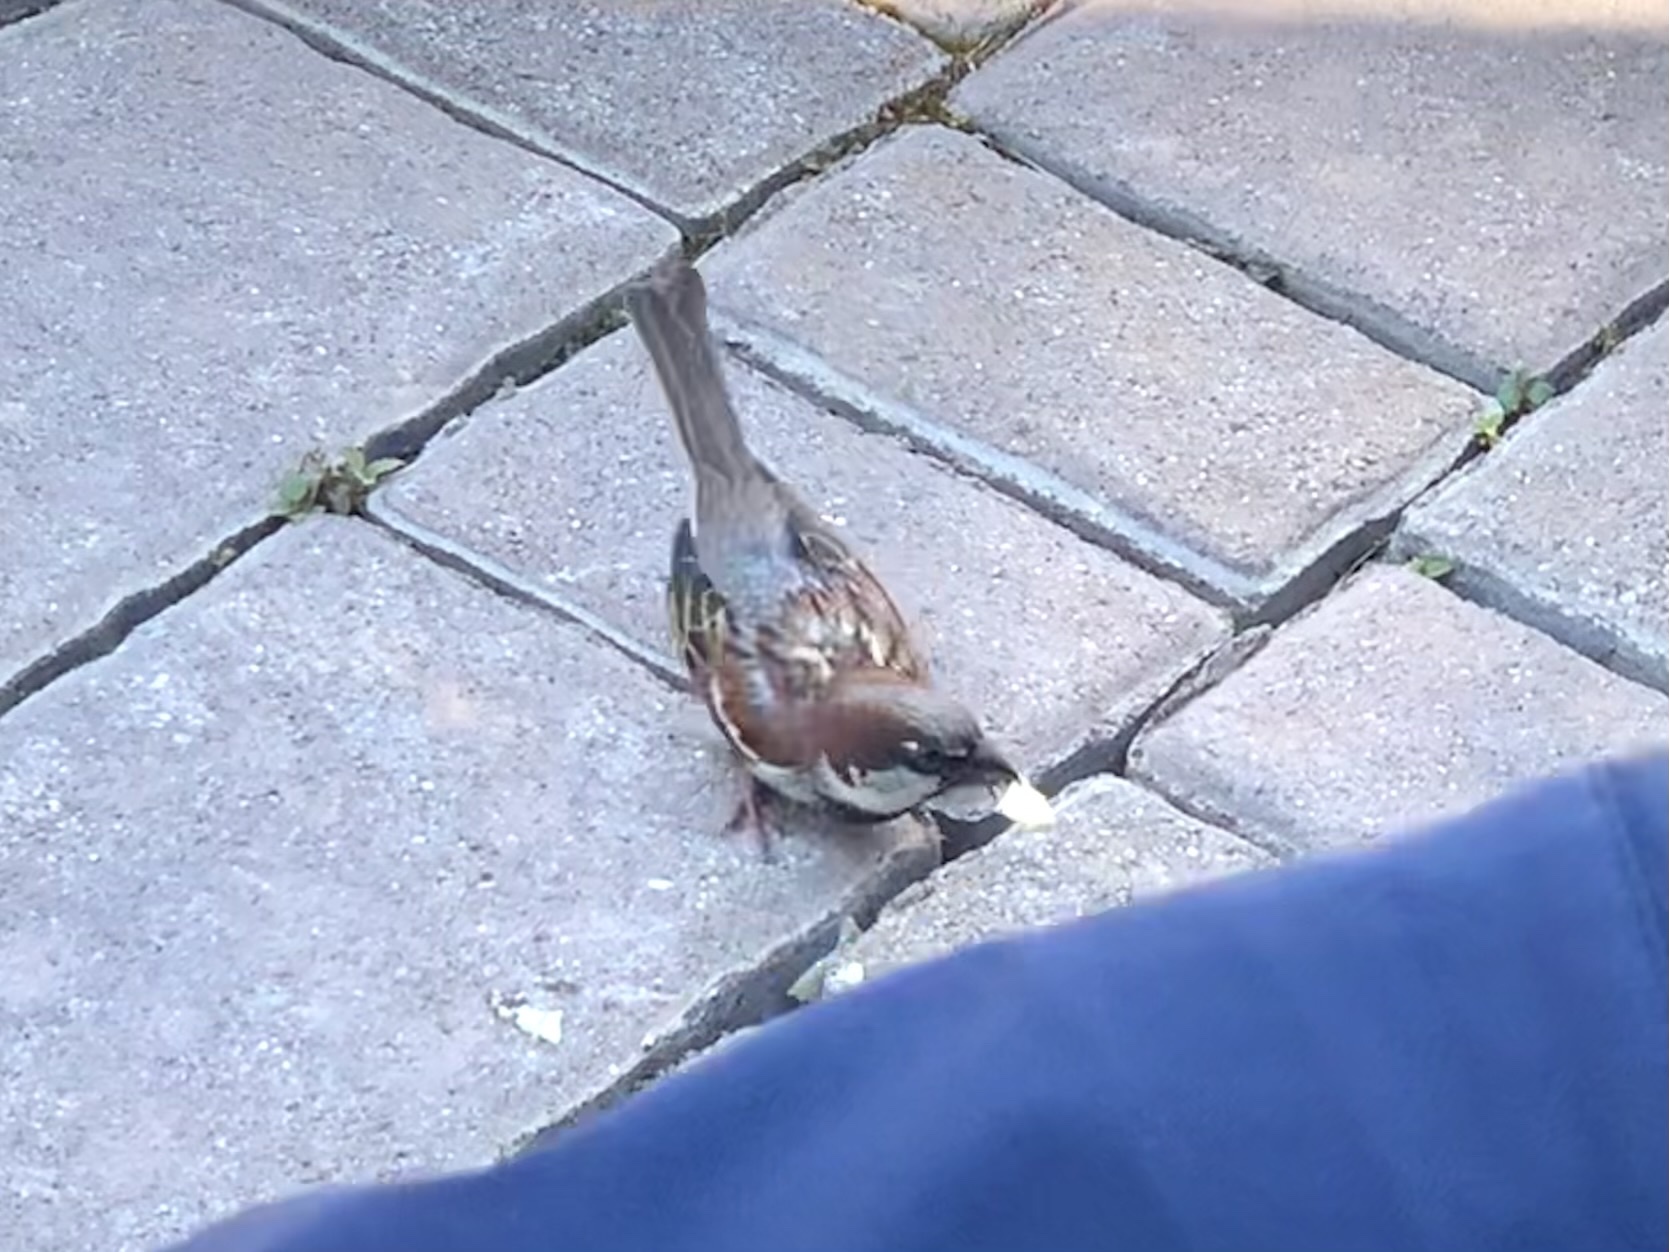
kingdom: Animalia
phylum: Chordata
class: Aves
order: Passeriformes
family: Passeridae
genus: Passer
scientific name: Passer domesticus
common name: House sparrow
